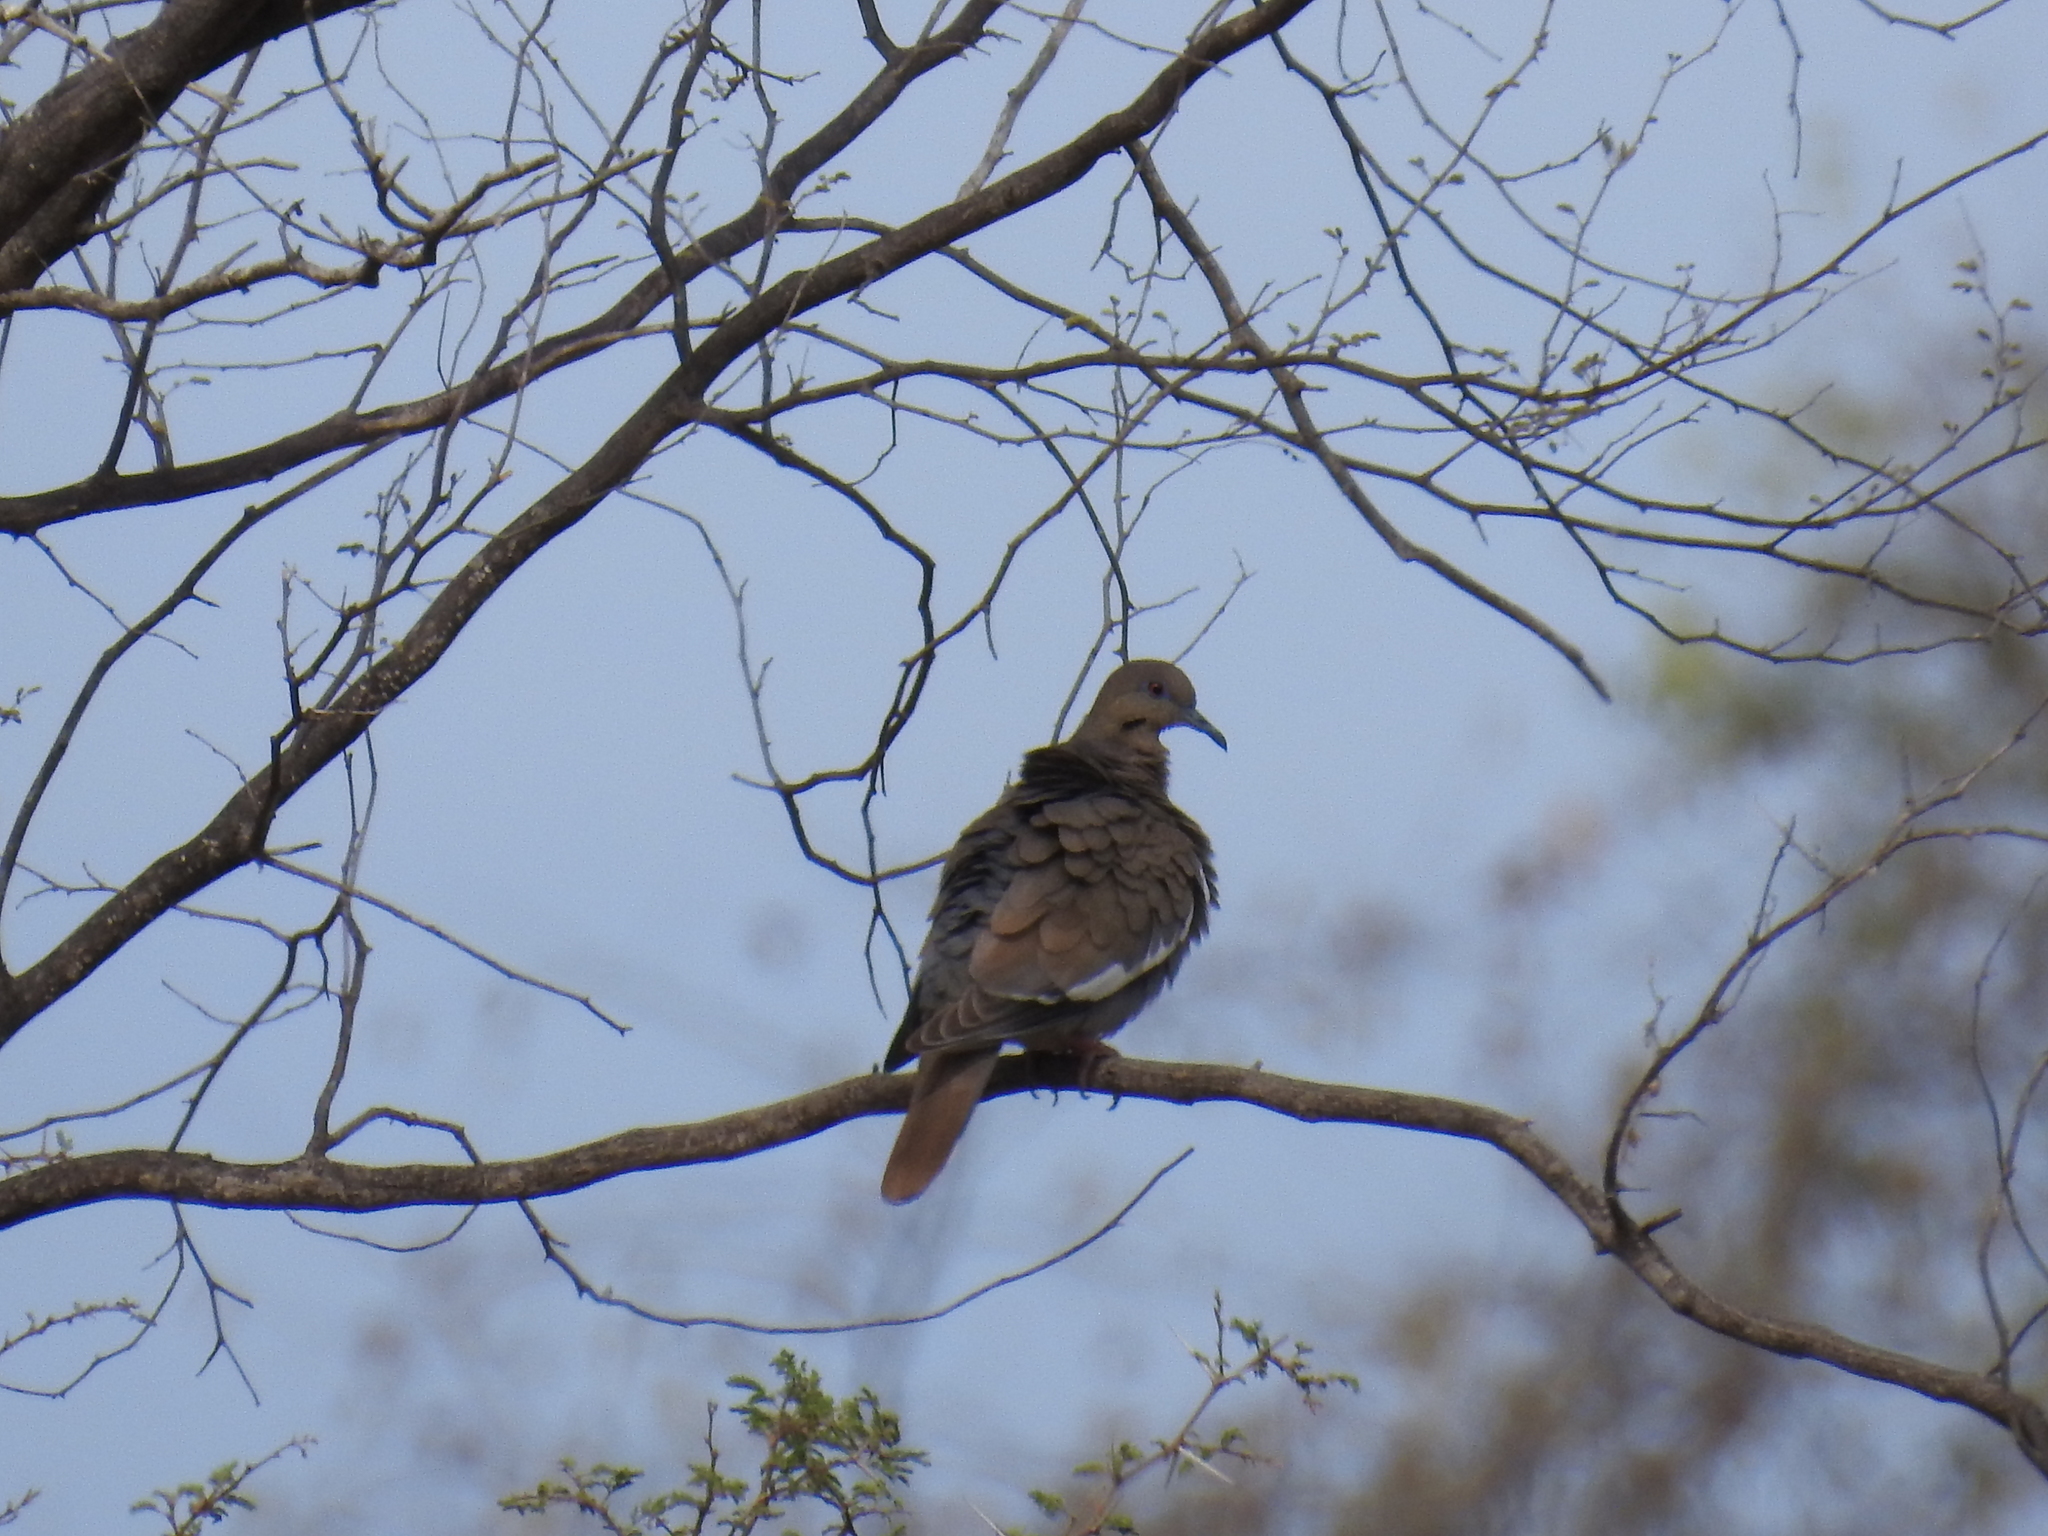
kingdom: Animalia
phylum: Chordata
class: Aves
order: Columbiformes
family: Columbidae
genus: Zenaida
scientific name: Zenaida asiatica
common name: White-winged dove
